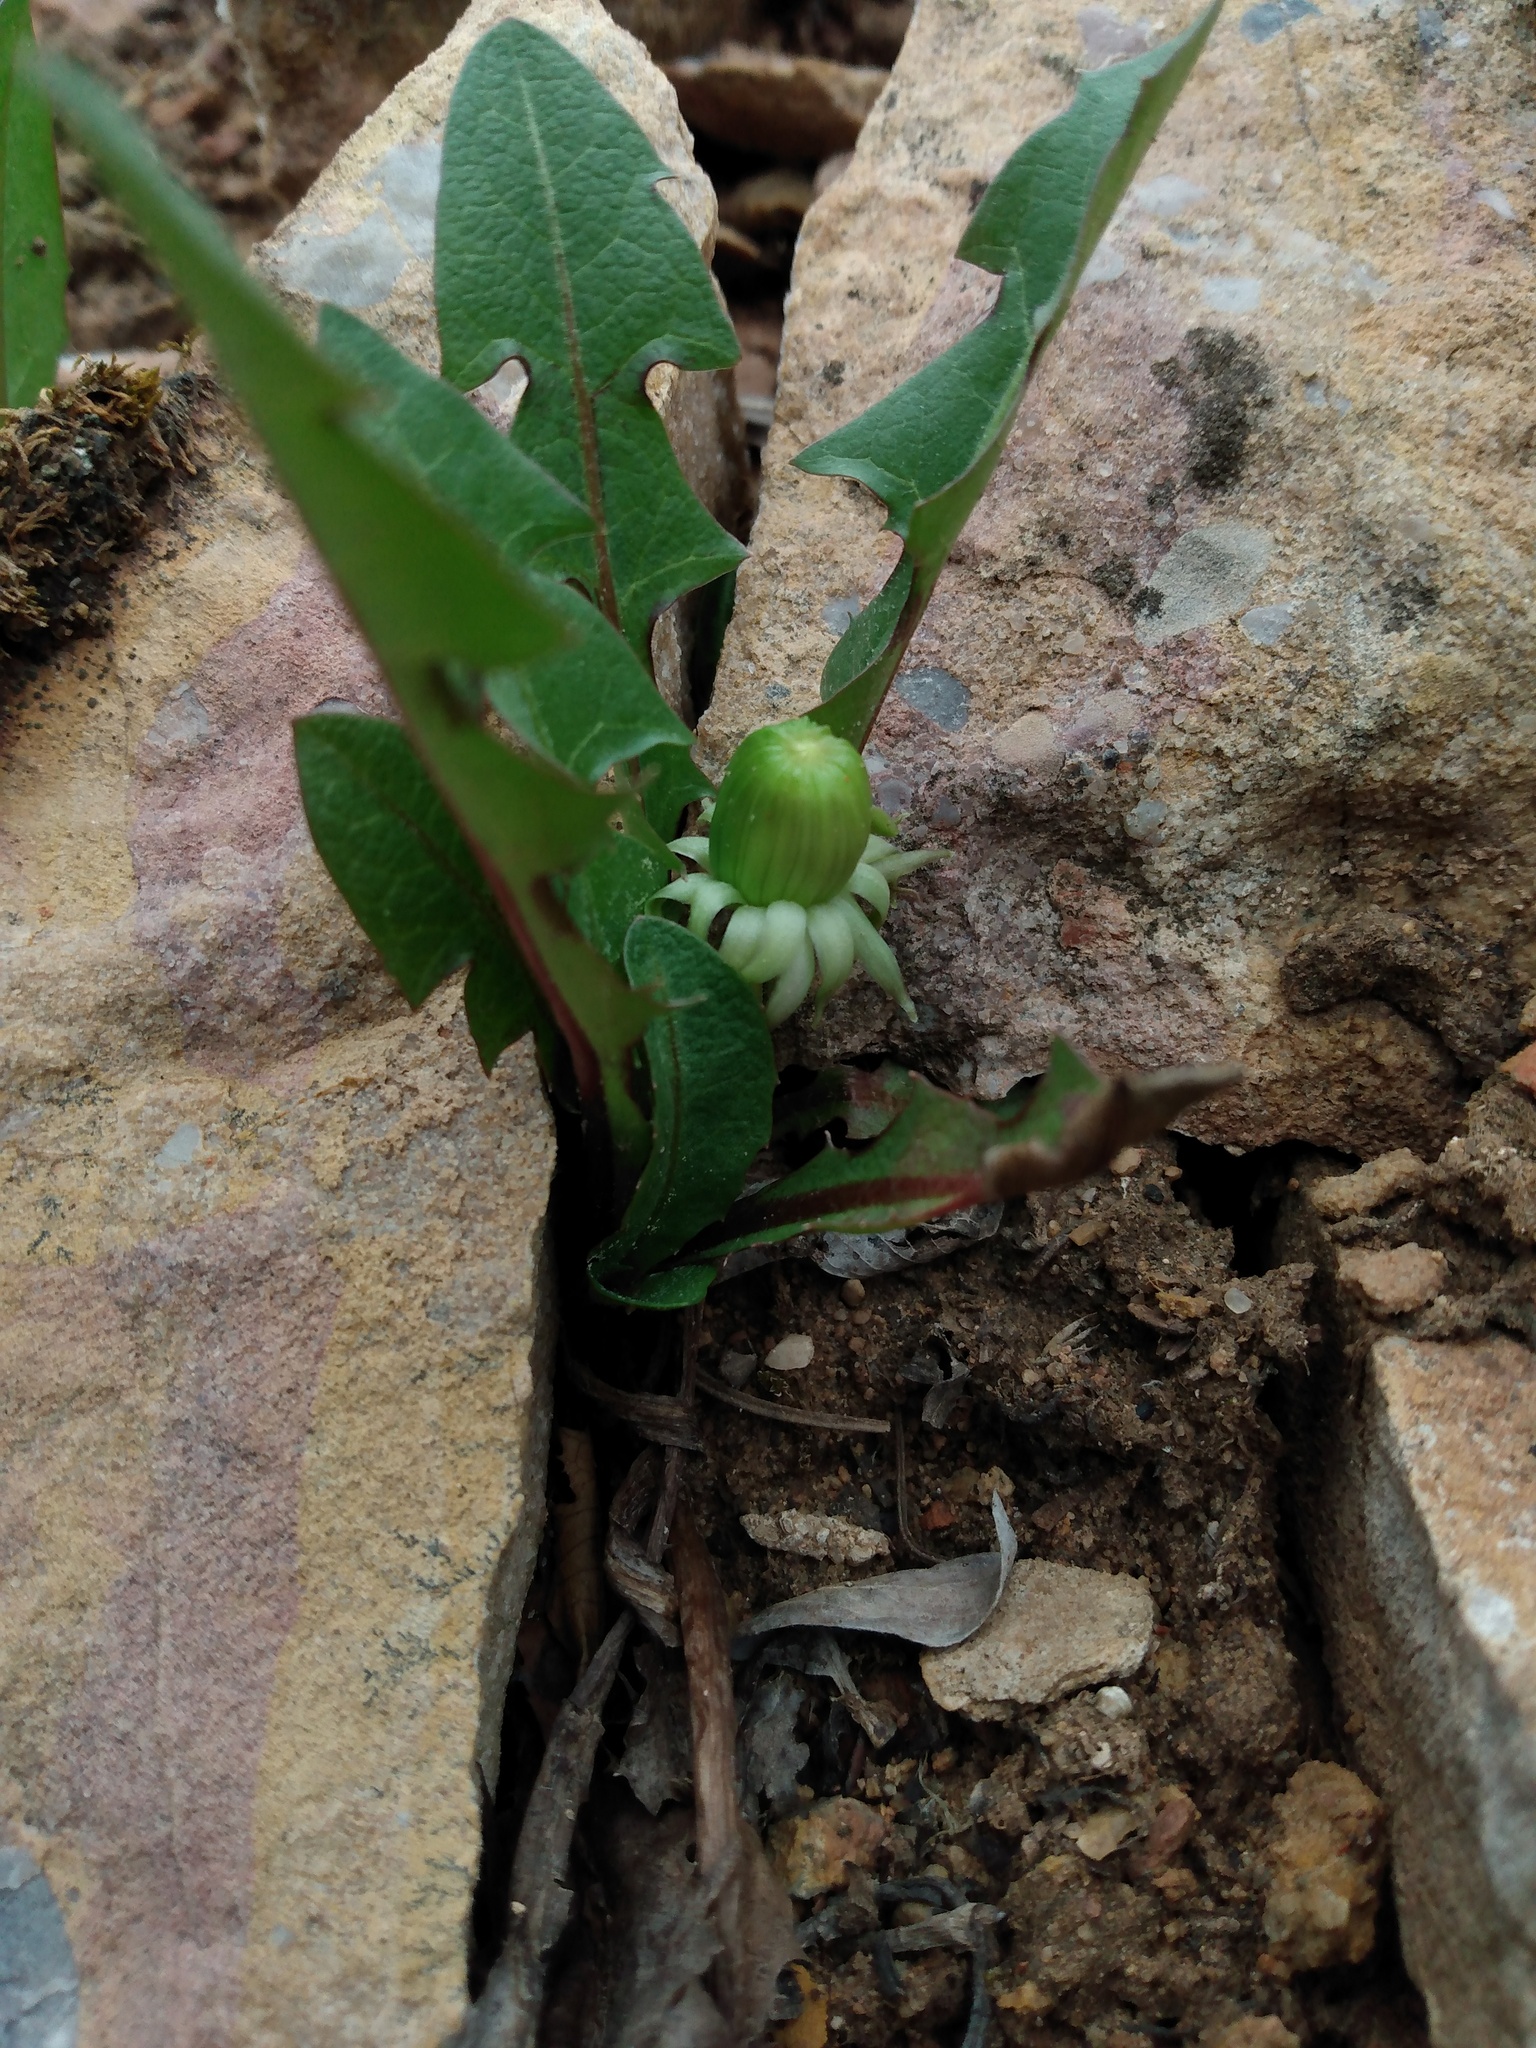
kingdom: Plantae
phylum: Tracheophyta
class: Magnoliopsida
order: Asterales
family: Asteraceae
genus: Taraxacum
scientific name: Taraxacum officinale
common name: Common dandelion
